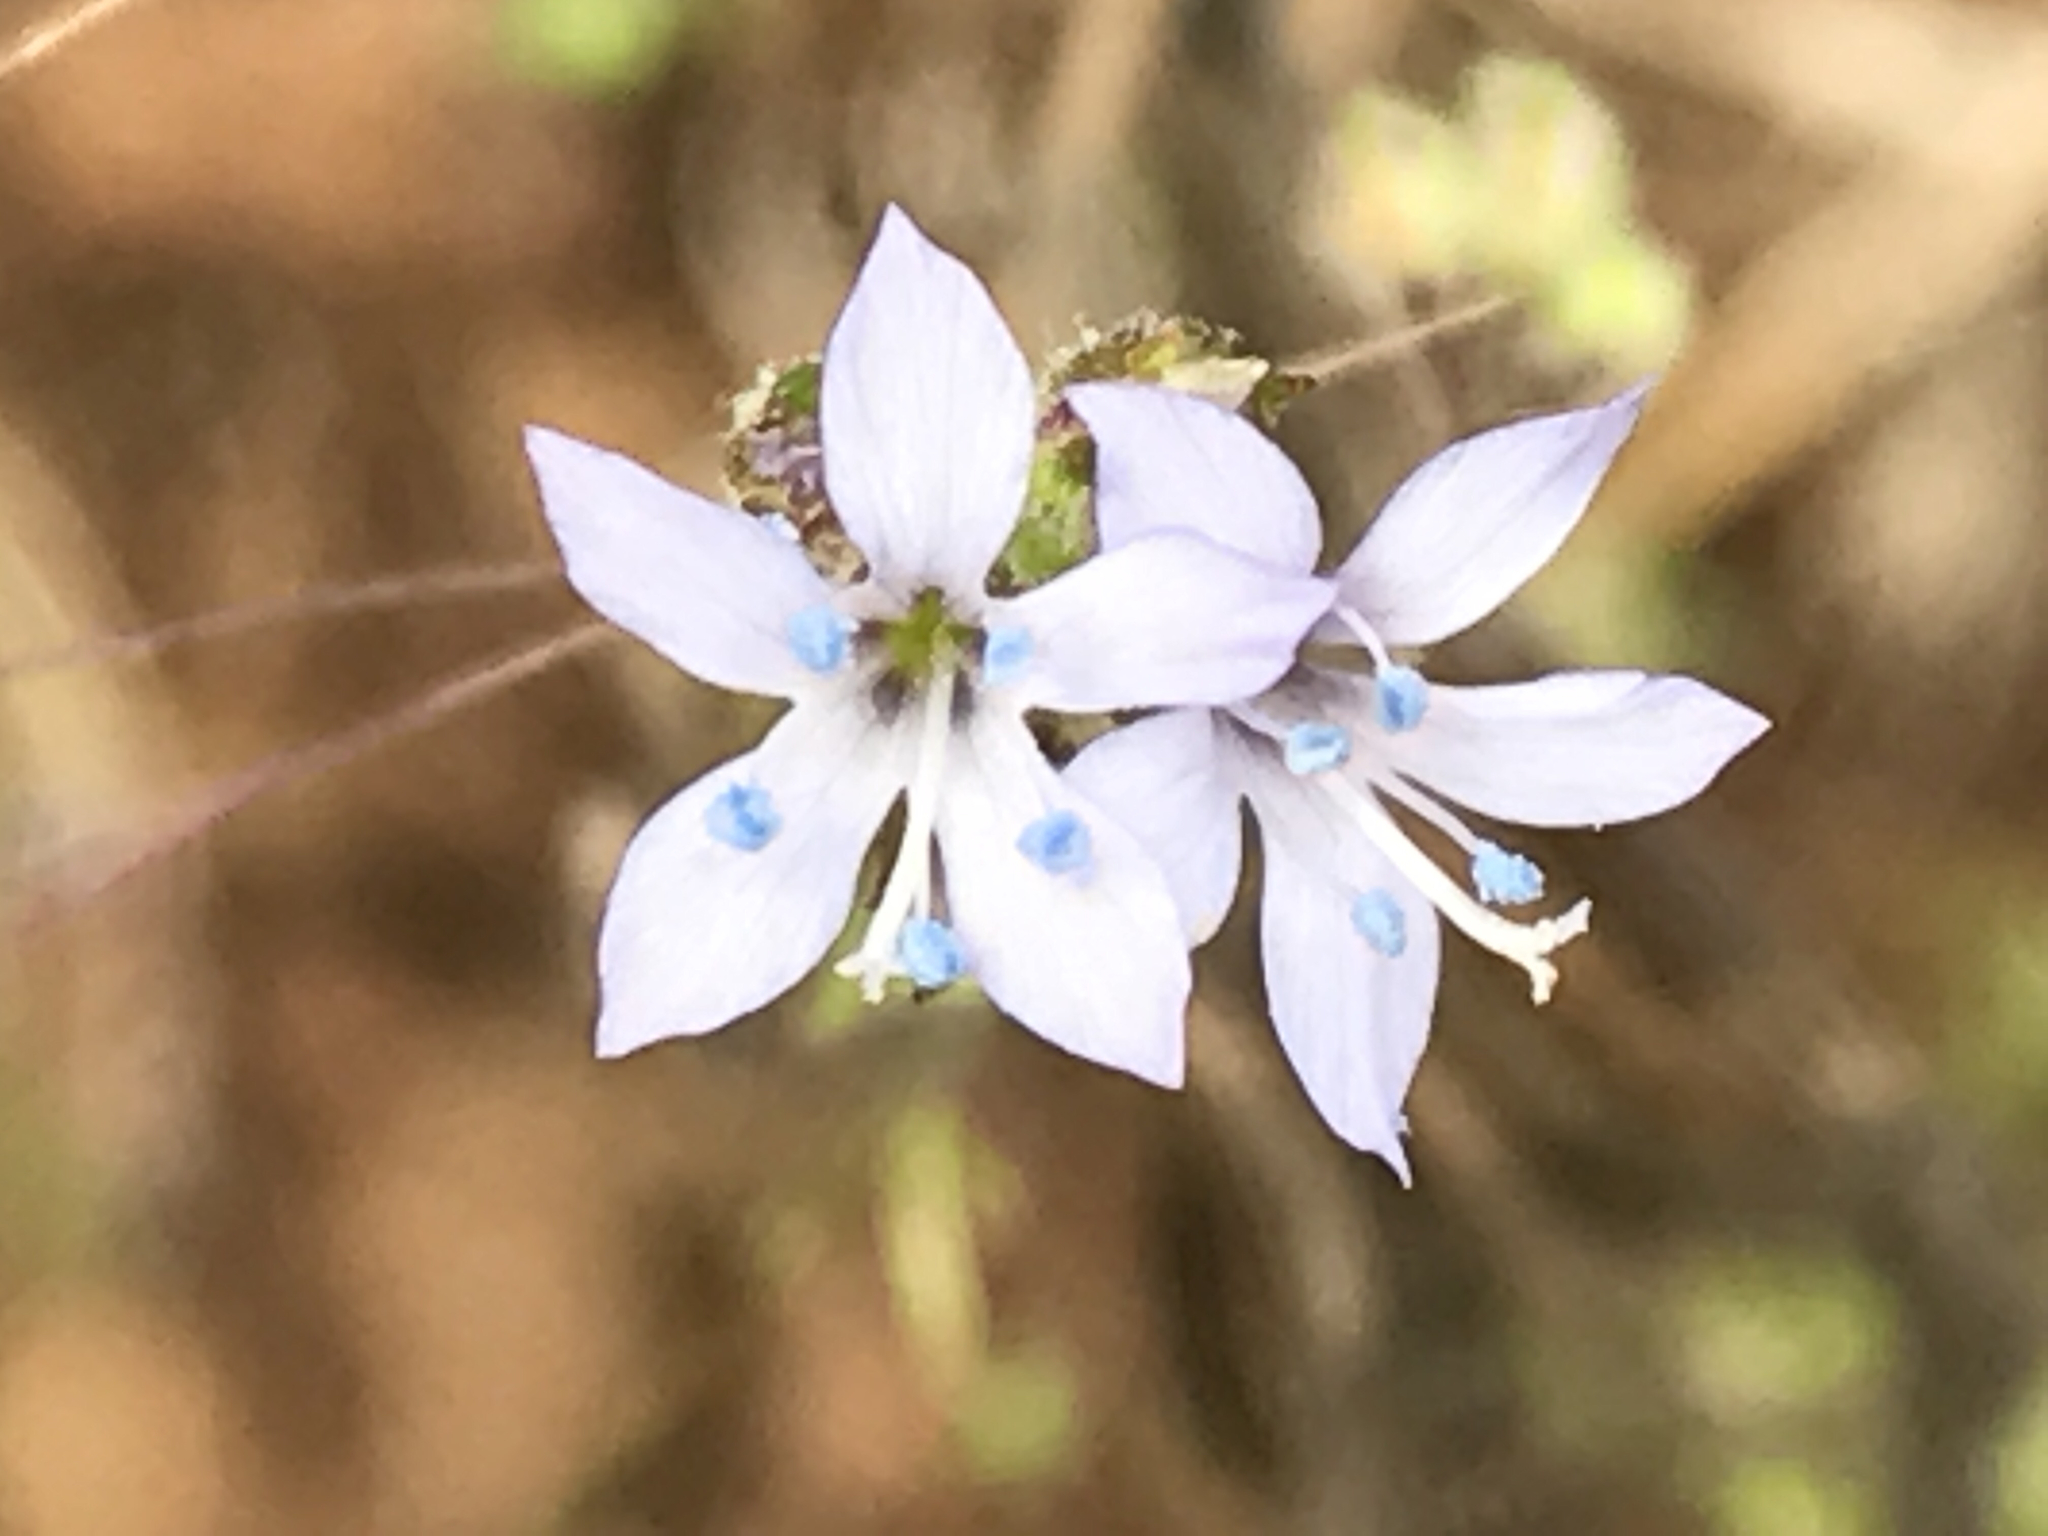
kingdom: Plantae
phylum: Tracheophyta
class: Magnoliopsida
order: Ericales
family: Polemoniaceae
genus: Gilia
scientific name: Gilia achilleifolia
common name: California gily-flower
